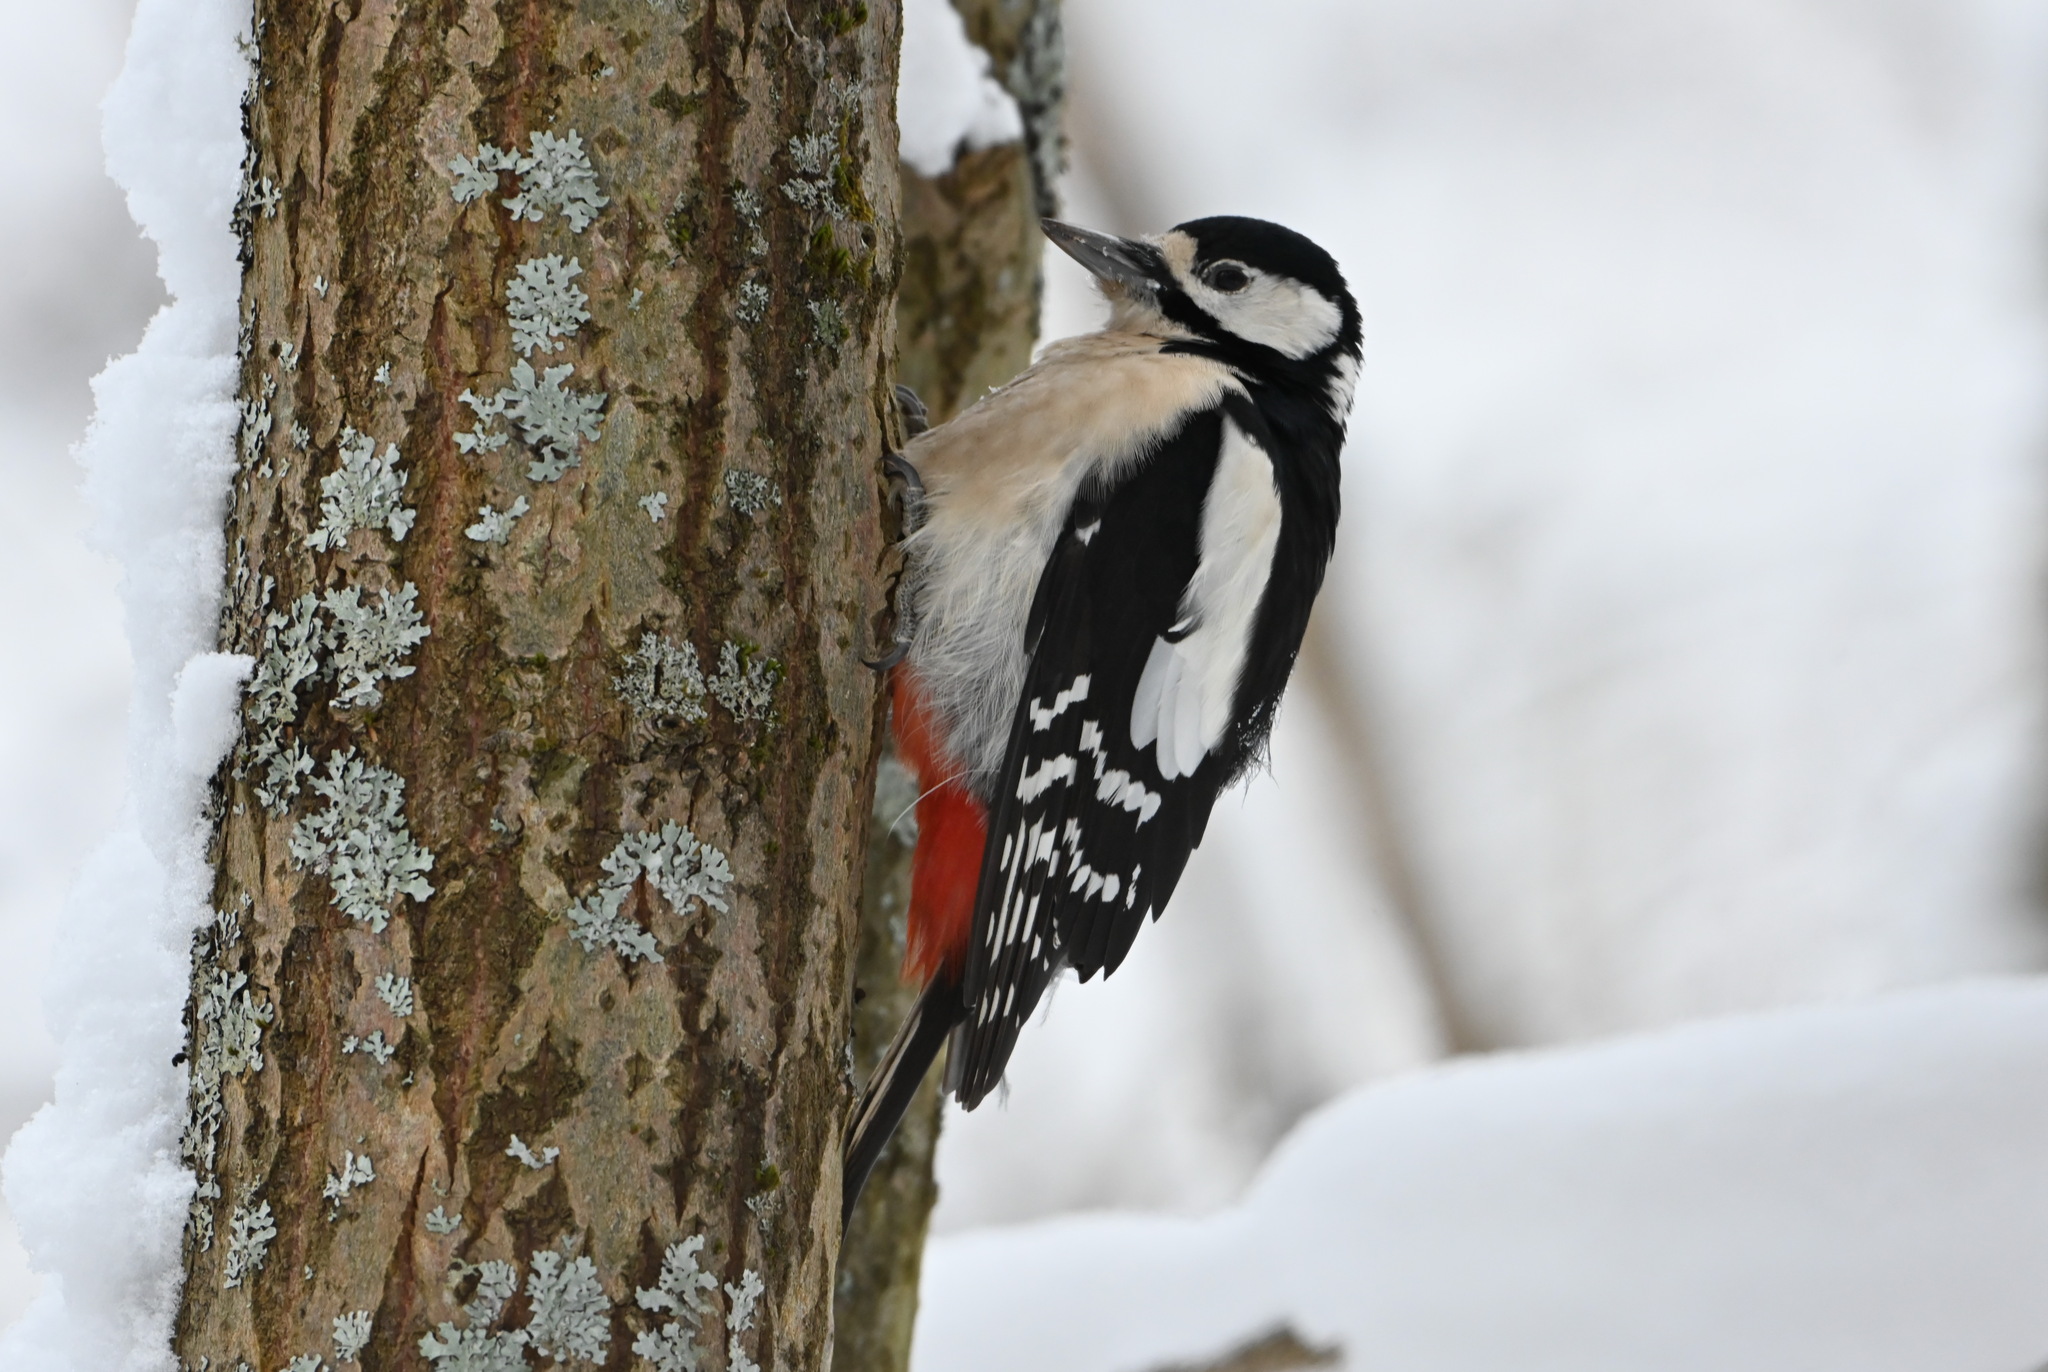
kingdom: Animalia
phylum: Chordata
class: Aves
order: Piciformes
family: Picidae
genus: Dendrocopos
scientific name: Dendrocopos major
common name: Great spotted woodpecker
